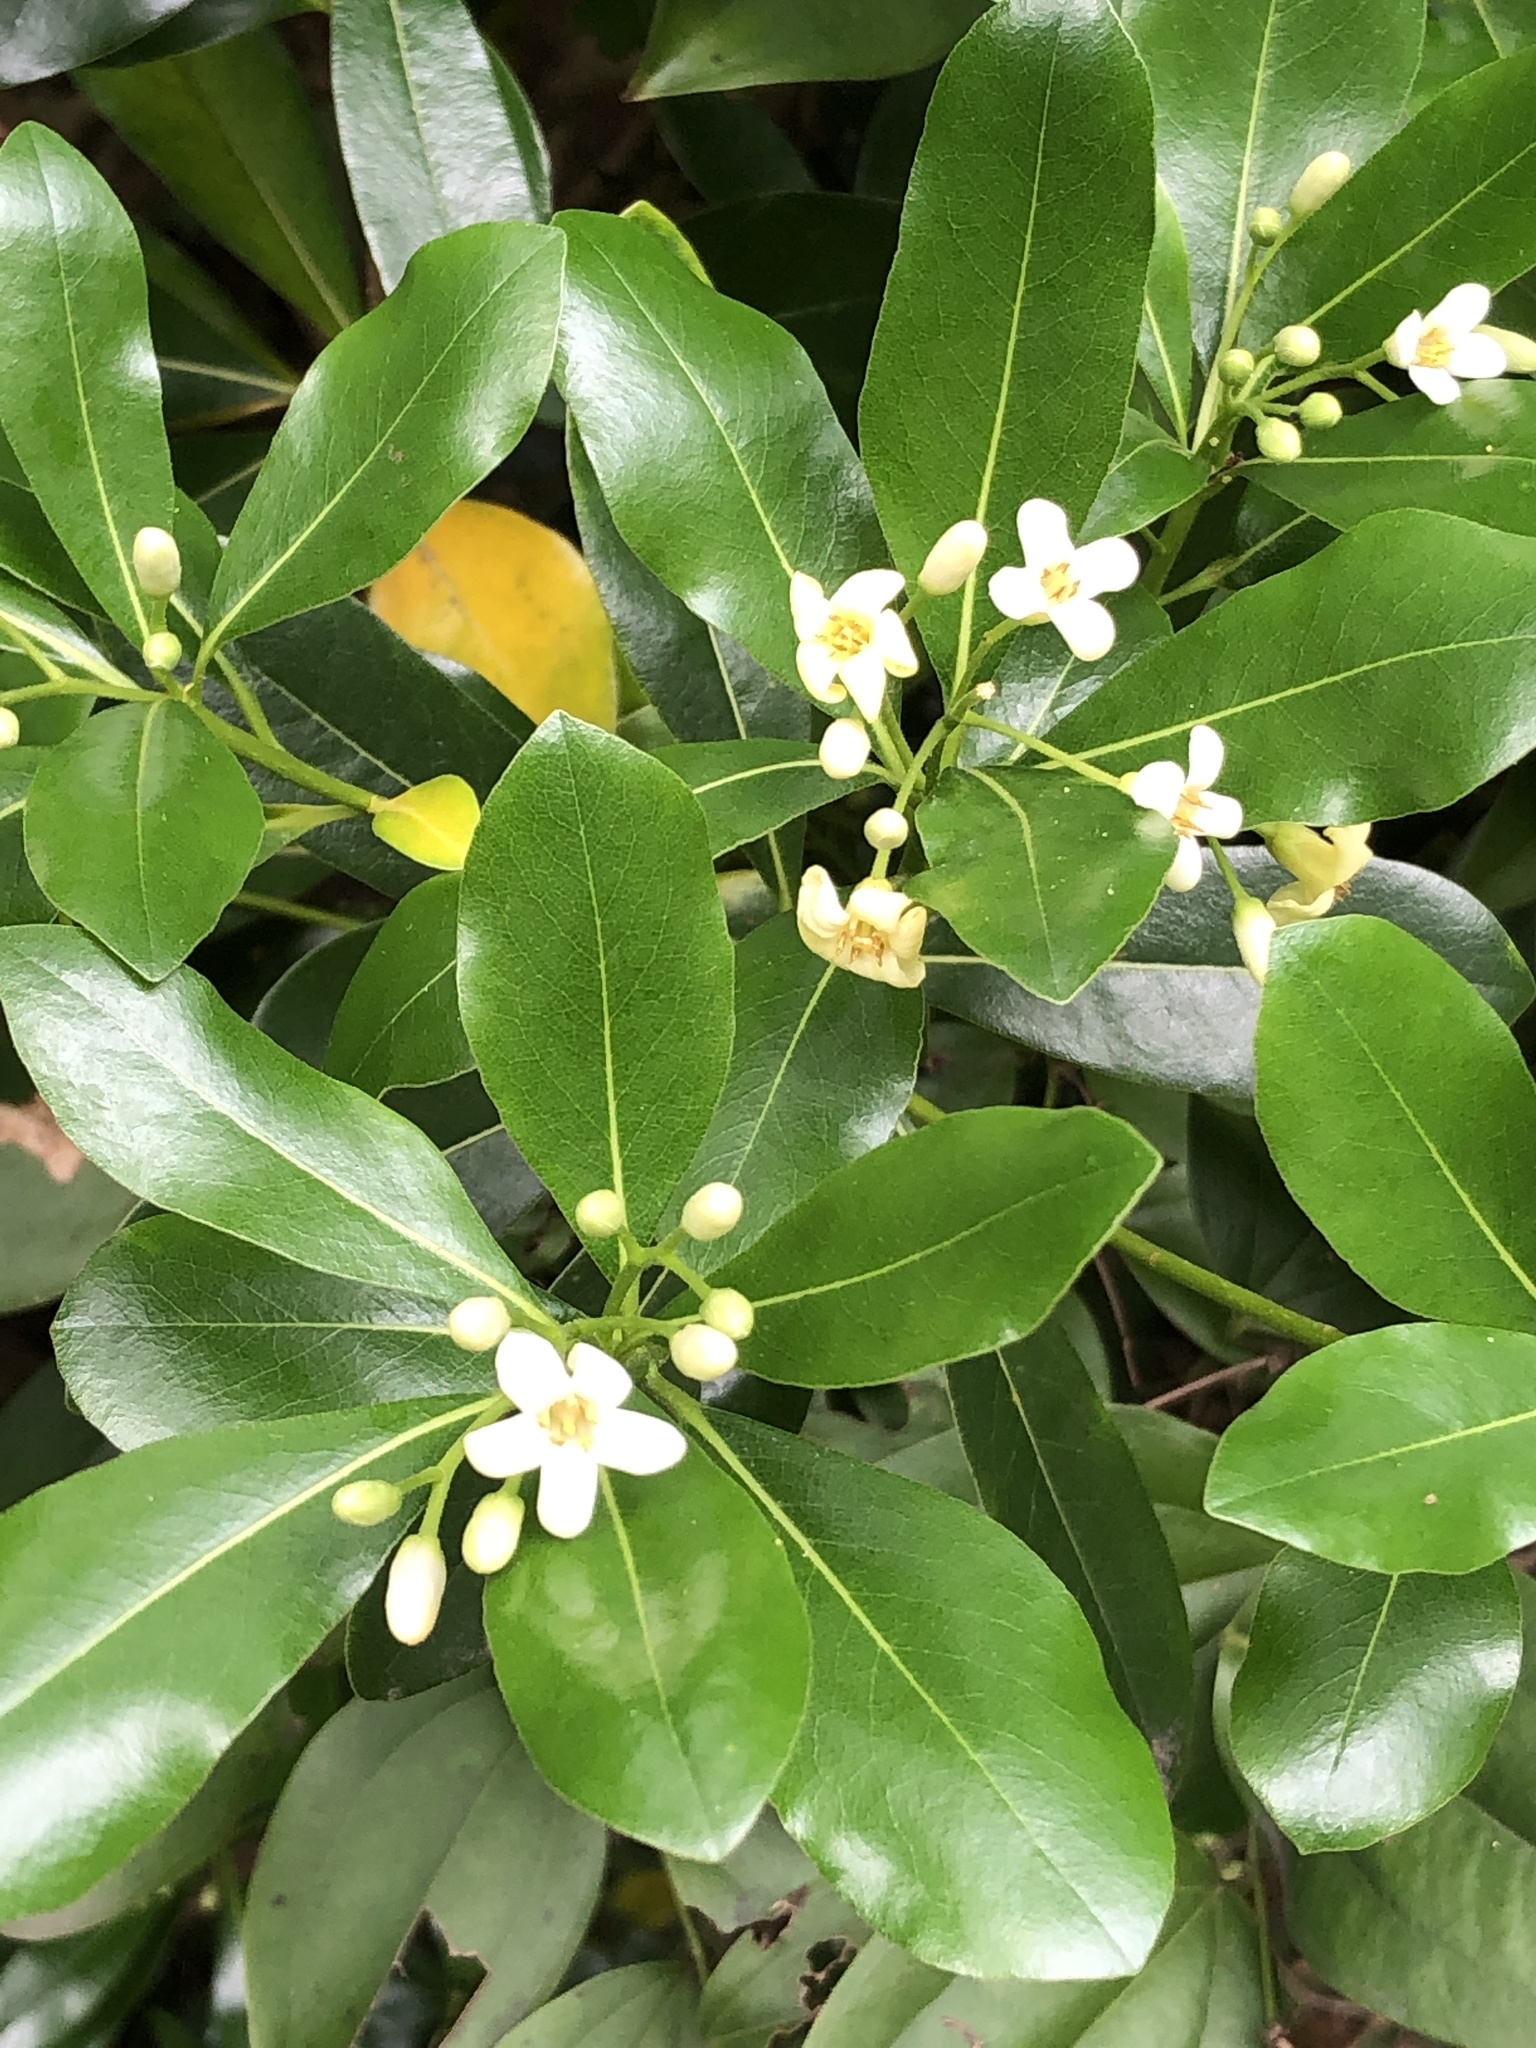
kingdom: Plantae
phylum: Tracheophyta
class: Magnoliopsida
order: Apiales
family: Pittosporaceae
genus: Pittosporum
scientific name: Pittosporum tobira
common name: Japanese cheesewood
